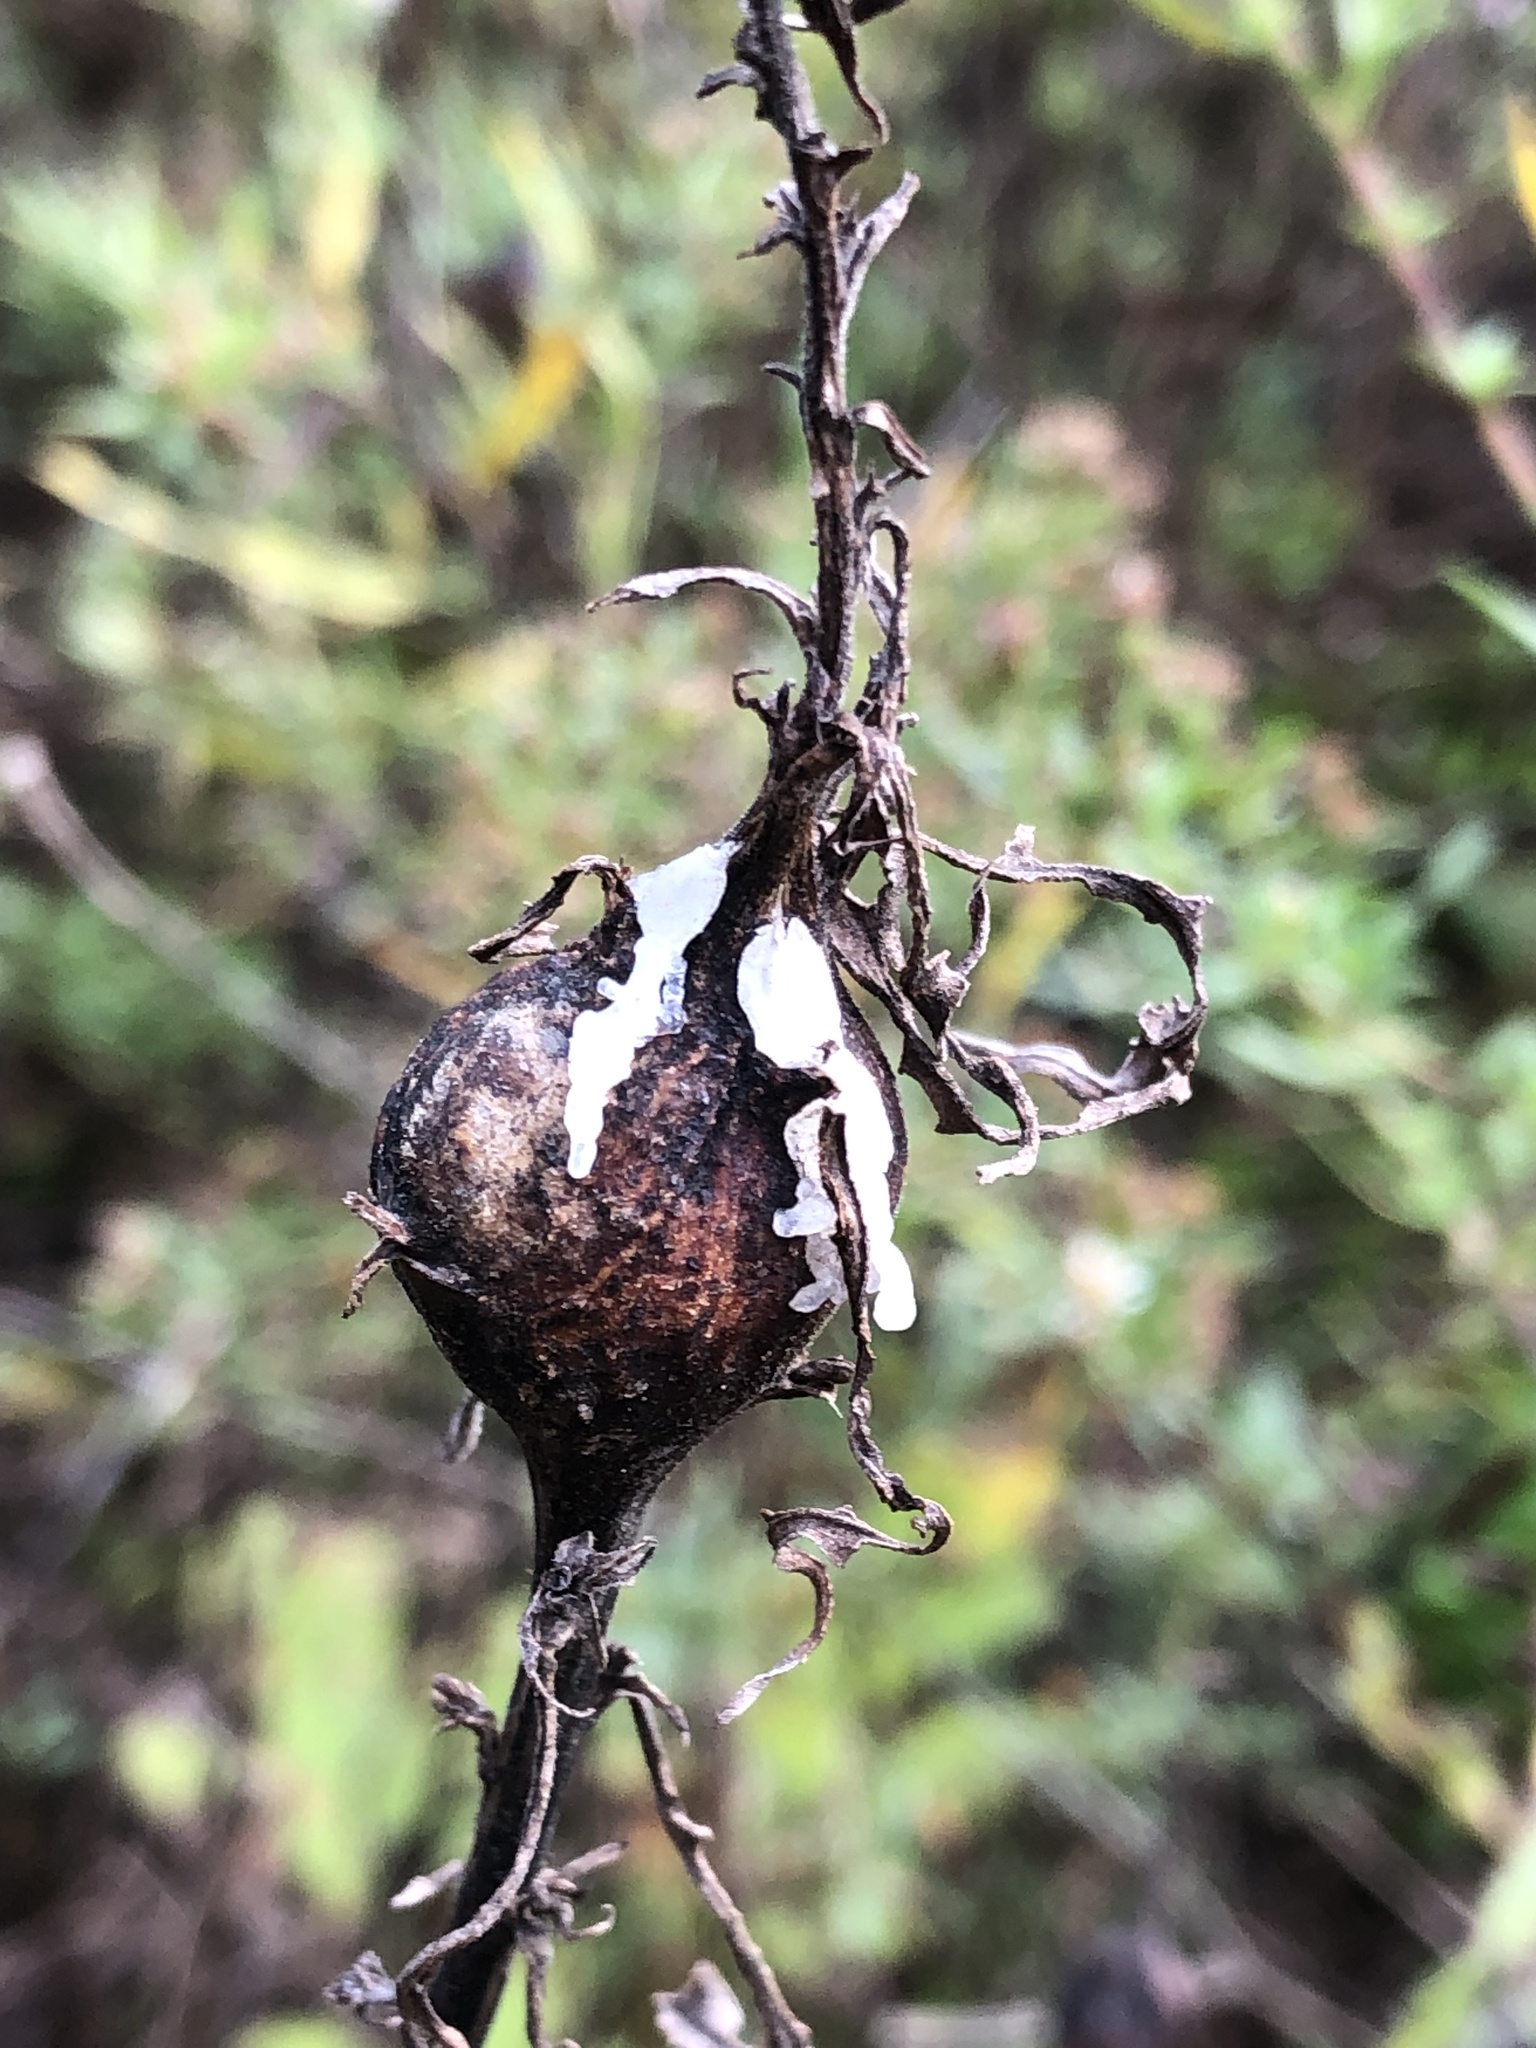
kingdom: Animalia
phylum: Arthropoda
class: Insecta
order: Diptera
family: Tephritidae
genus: Eurosta
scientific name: Eurosta solidaginis
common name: Goldenrod gall fly
